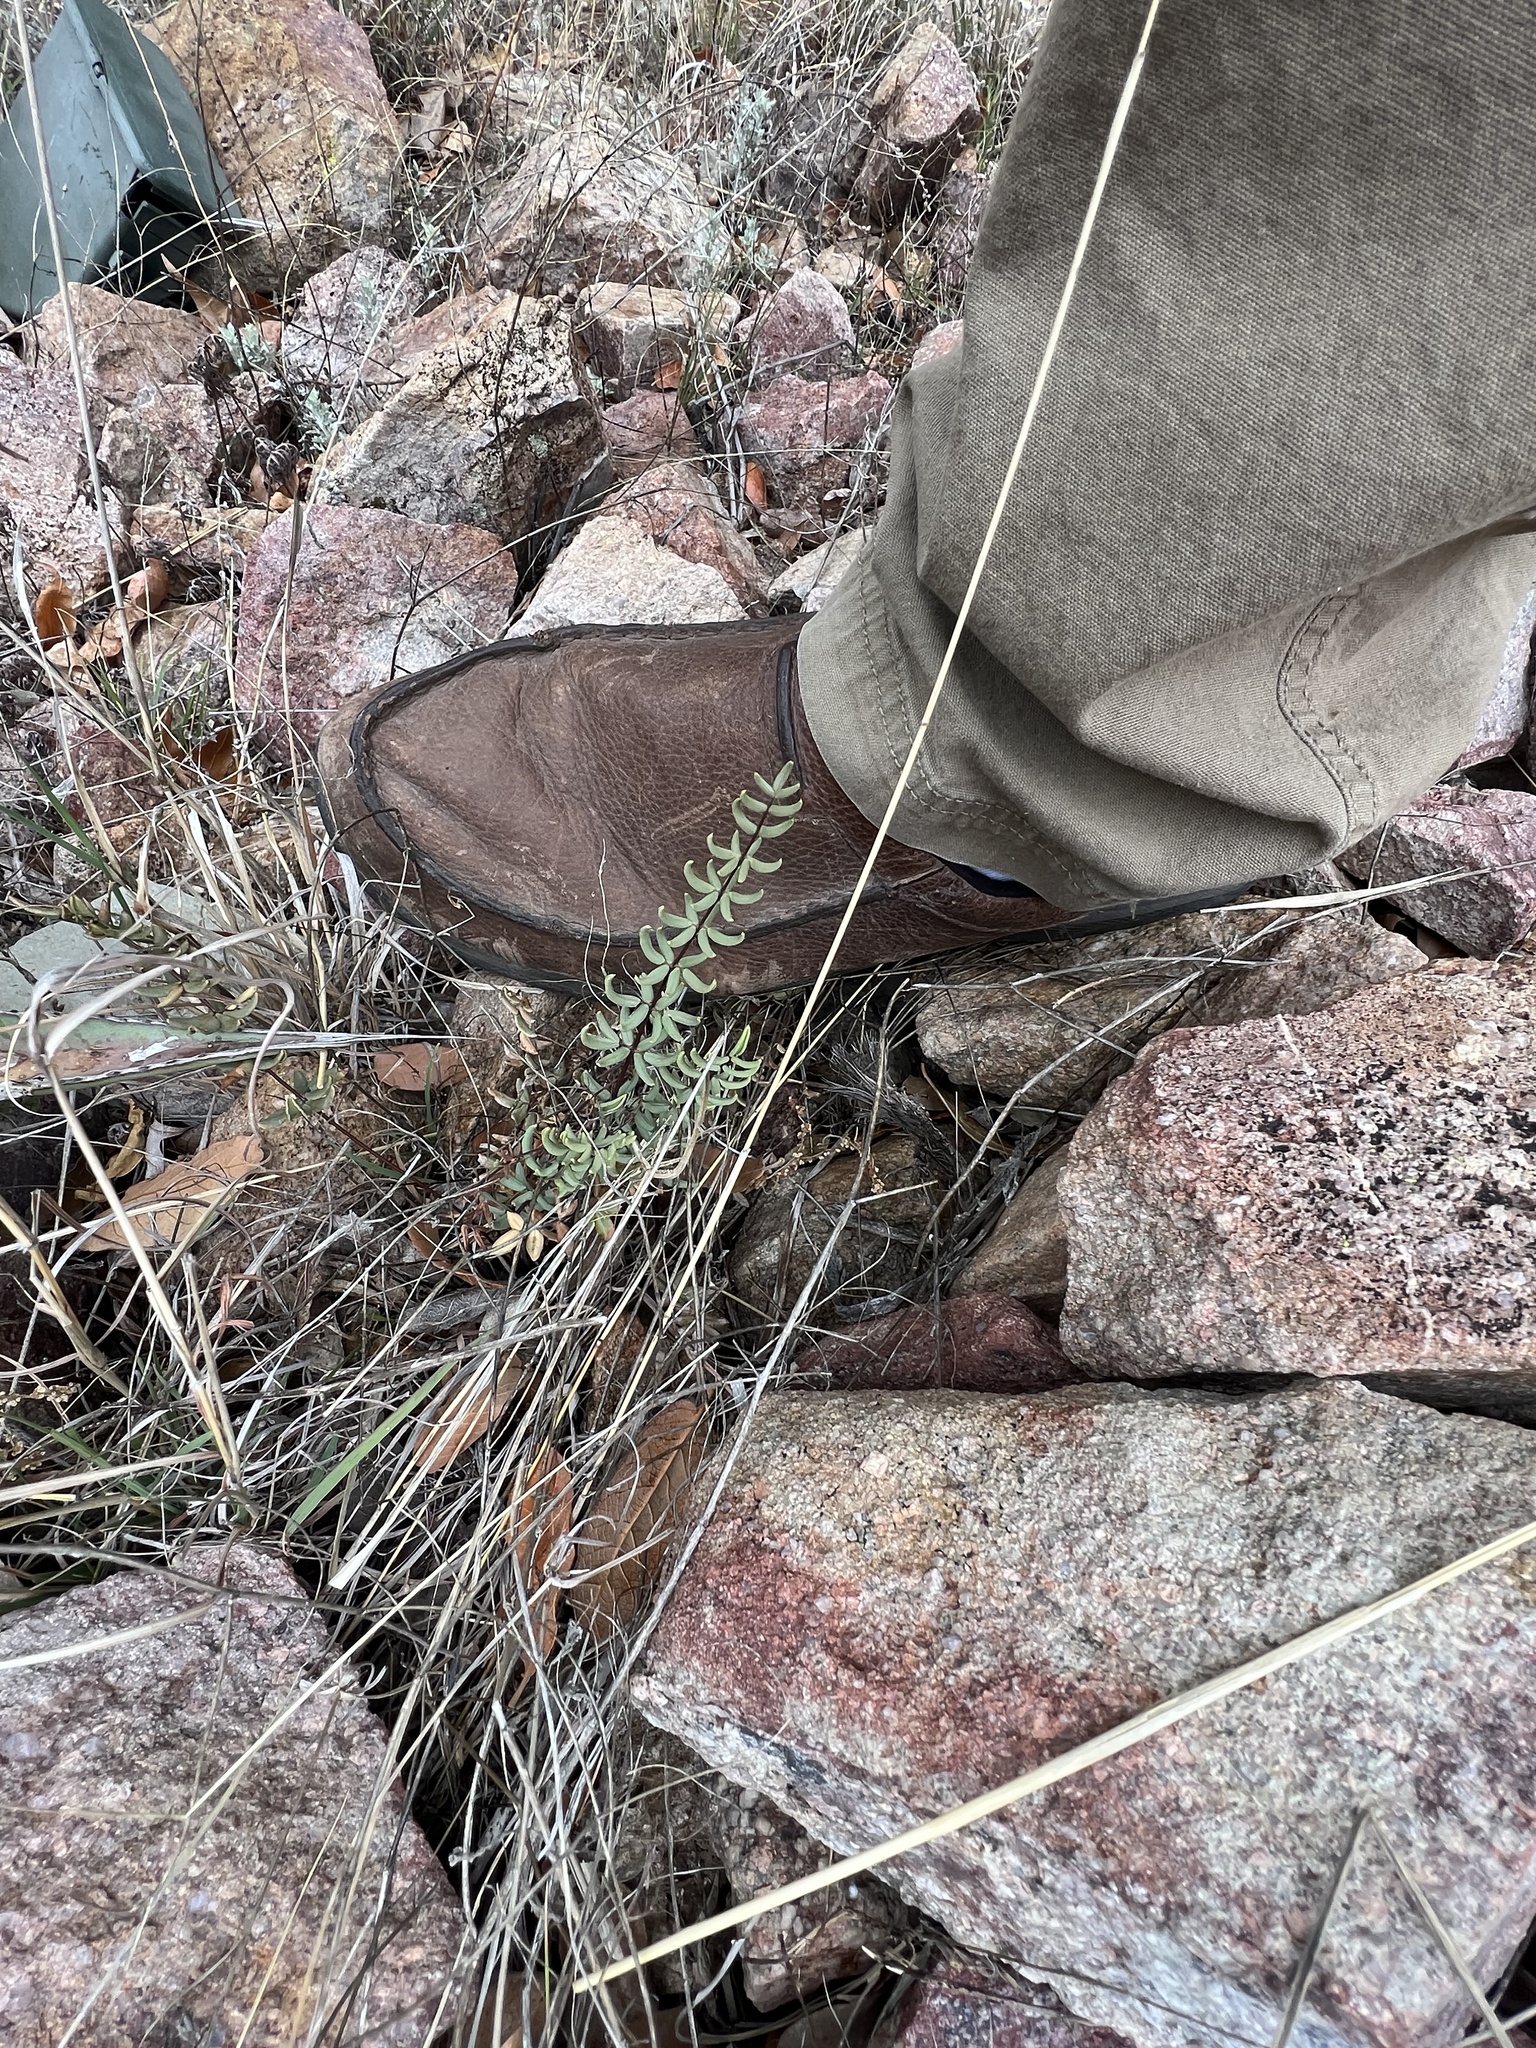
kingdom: Plantae
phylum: Tracheophyta
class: Polypodiopsida
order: Polypodiales
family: Pteridaceae
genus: Pellaea
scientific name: Pellaea wrightiana
